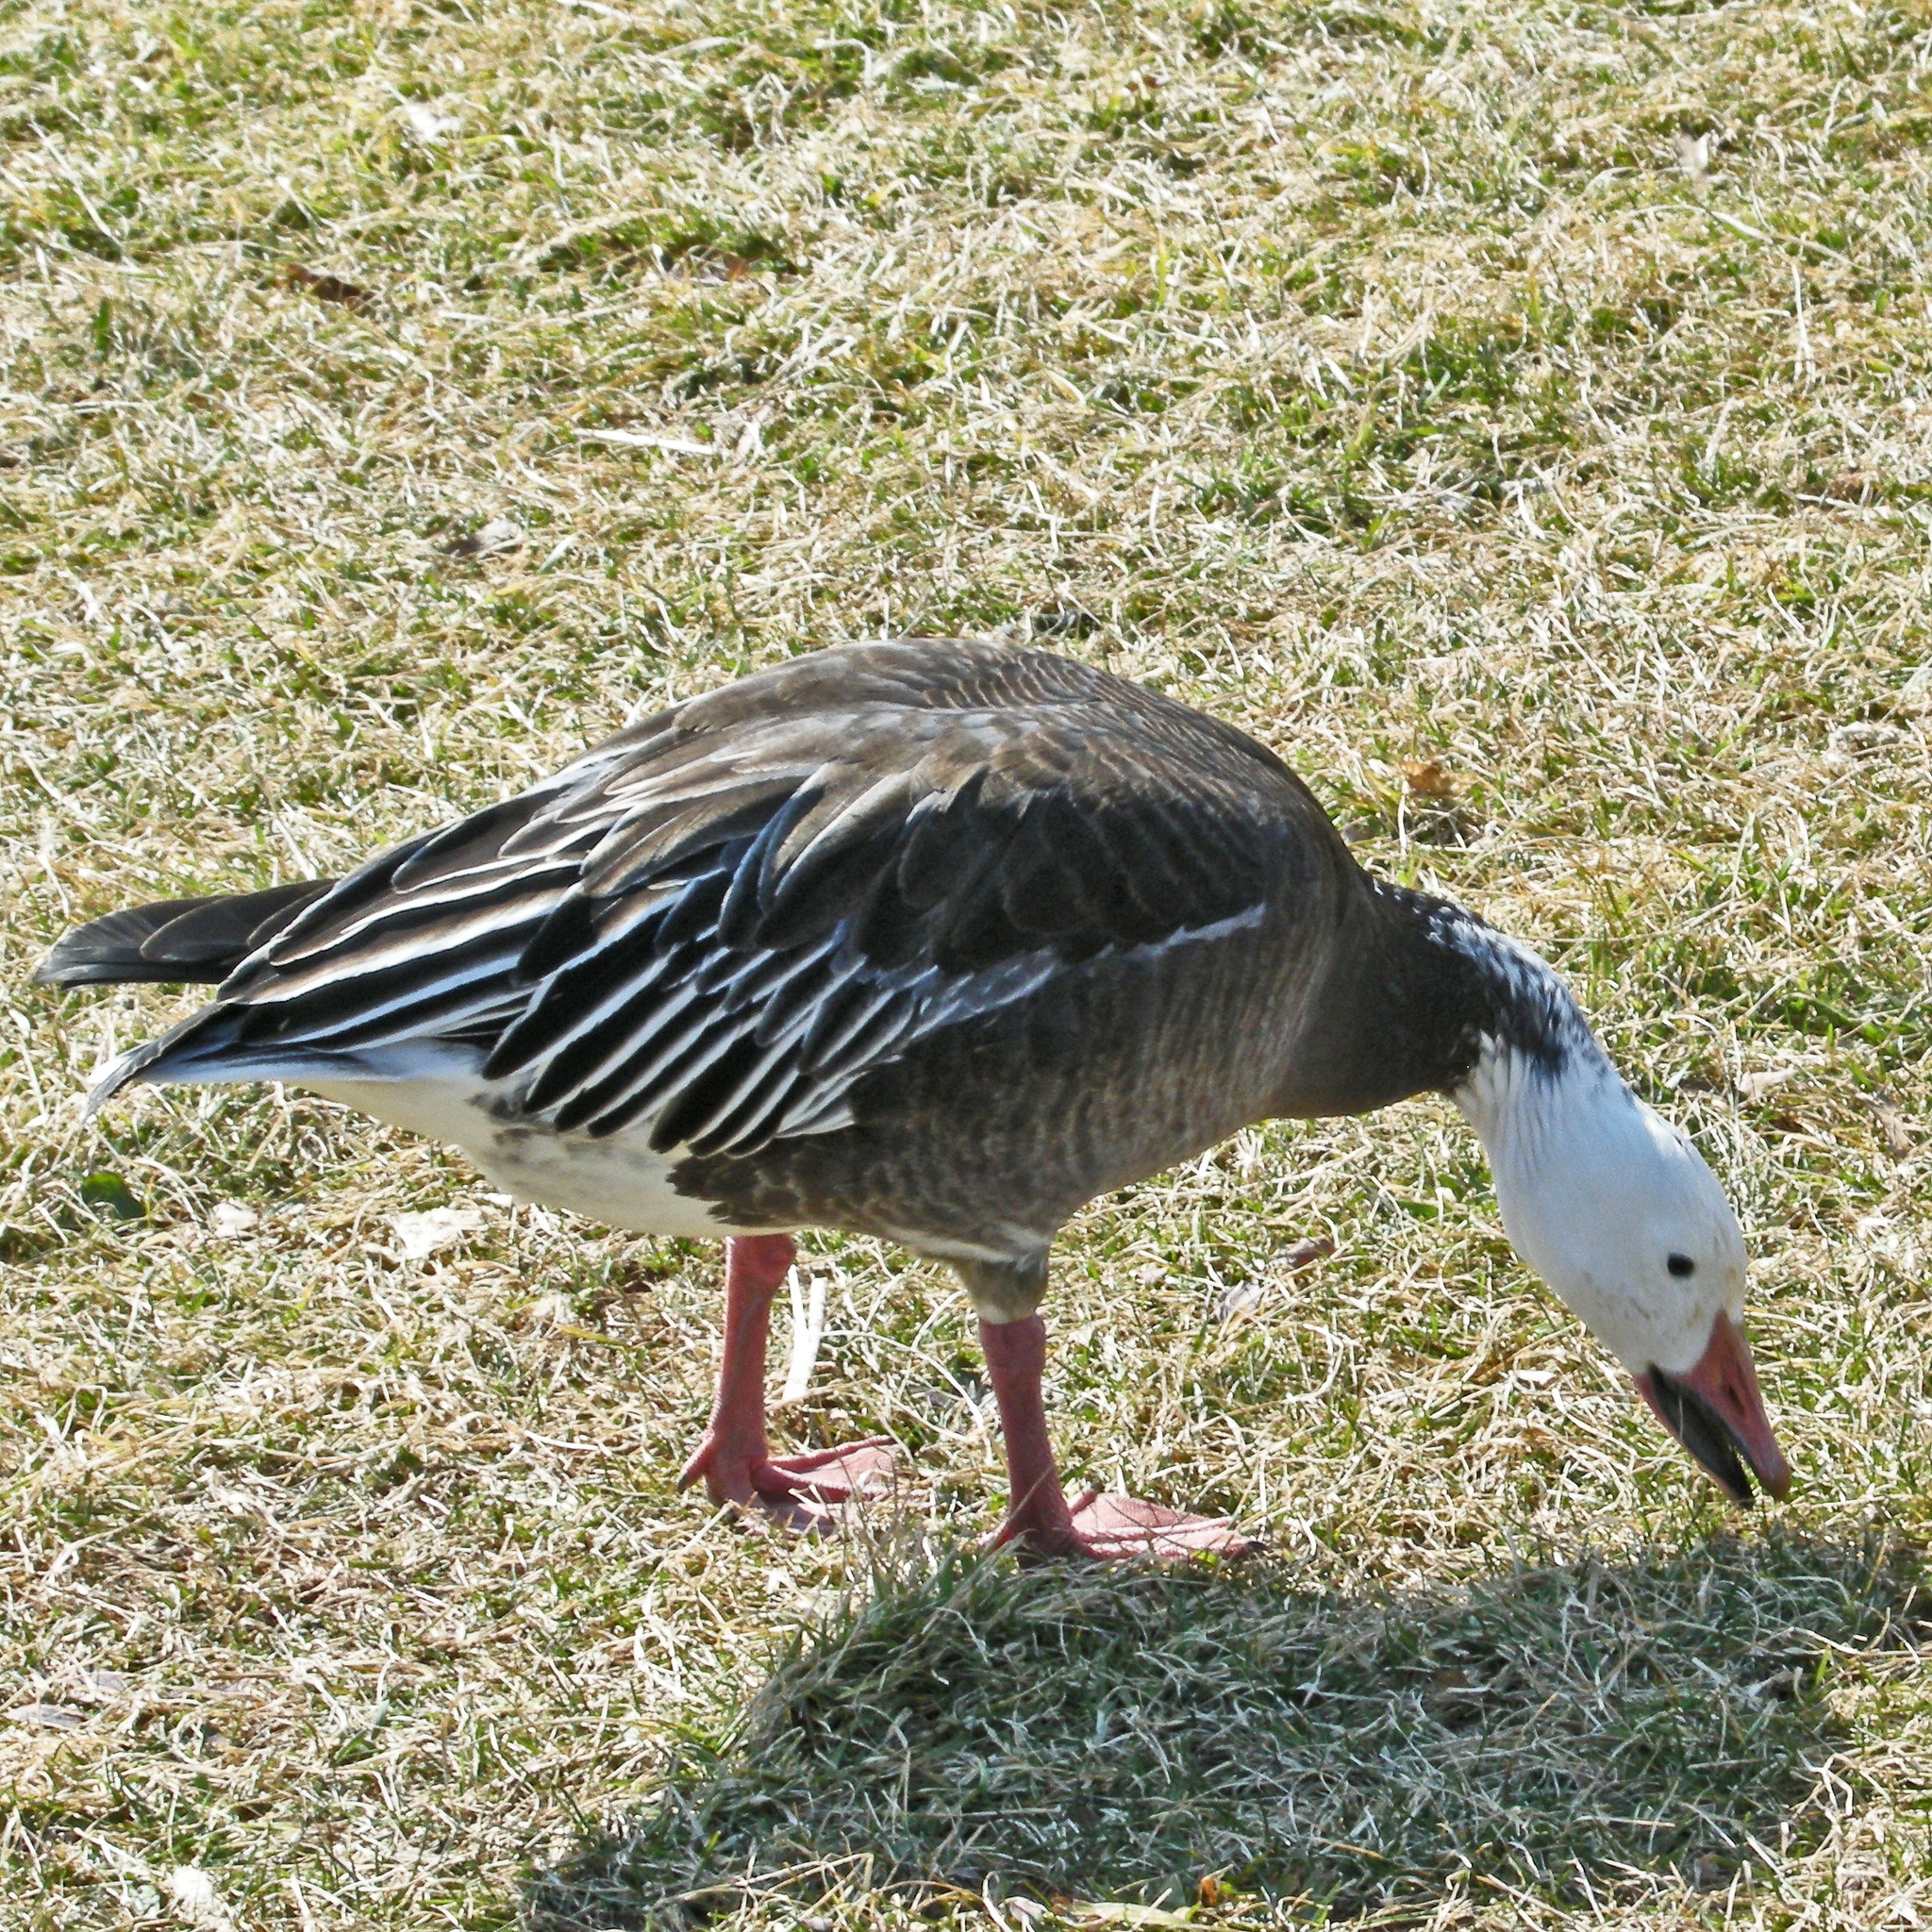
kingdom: Animalia
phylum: Chordata
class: Aves
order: Anseriformes
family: Anatidae
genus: Anser
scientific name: Anser caerulescens
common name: Snow goose
